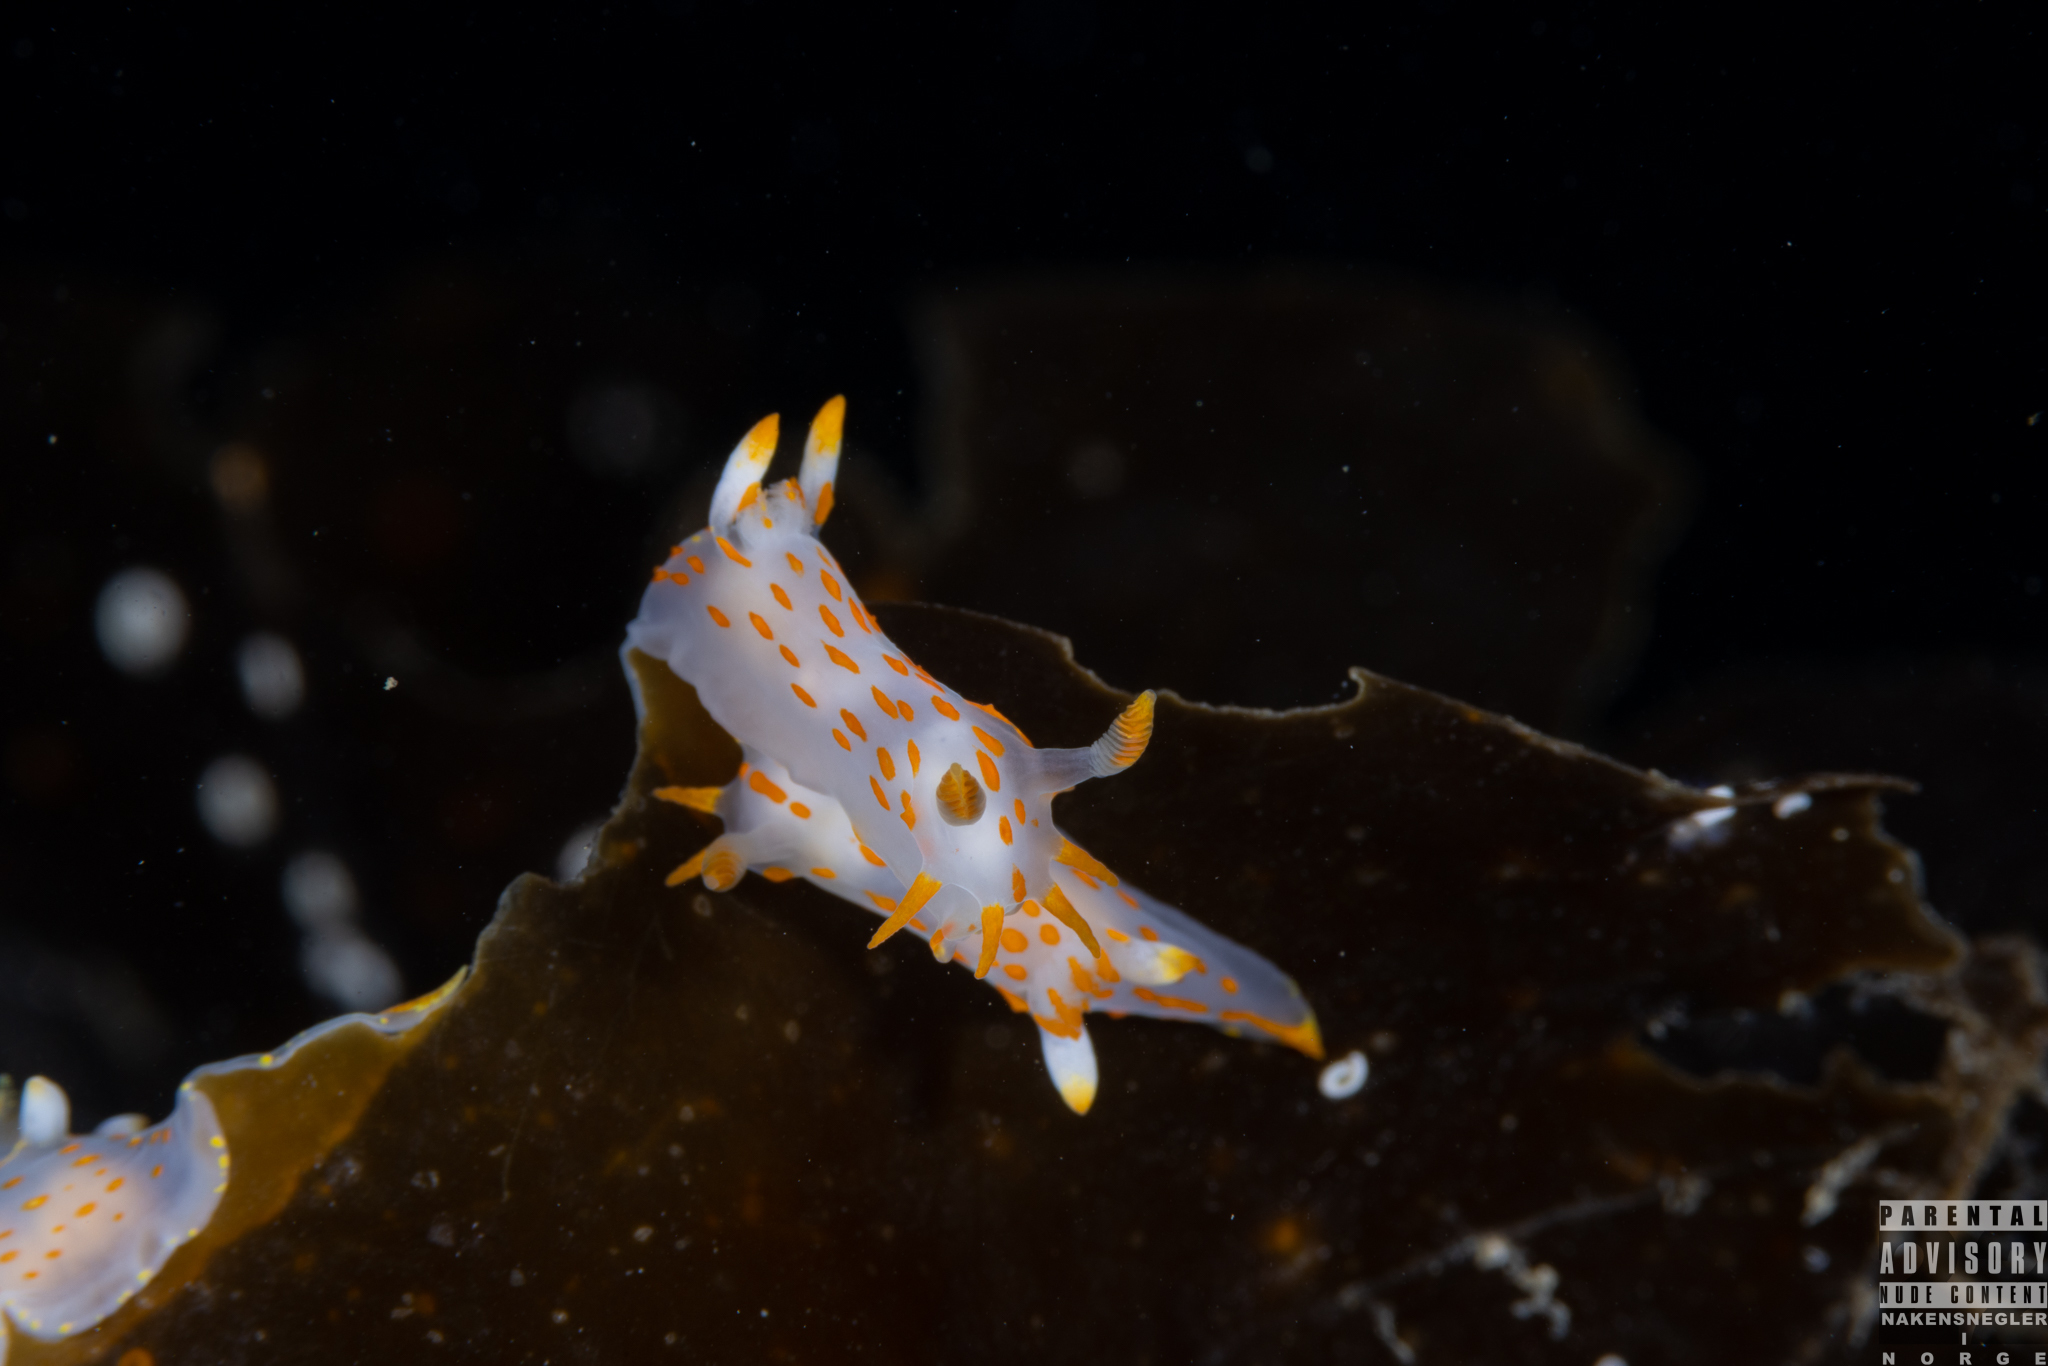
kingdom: Animalia
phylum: Mollusca
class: Gastropoda
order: Nudibranchia
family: Polyceridae
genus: Polycera
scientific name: Polycera quadrilineata
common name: Four-striped polycera
